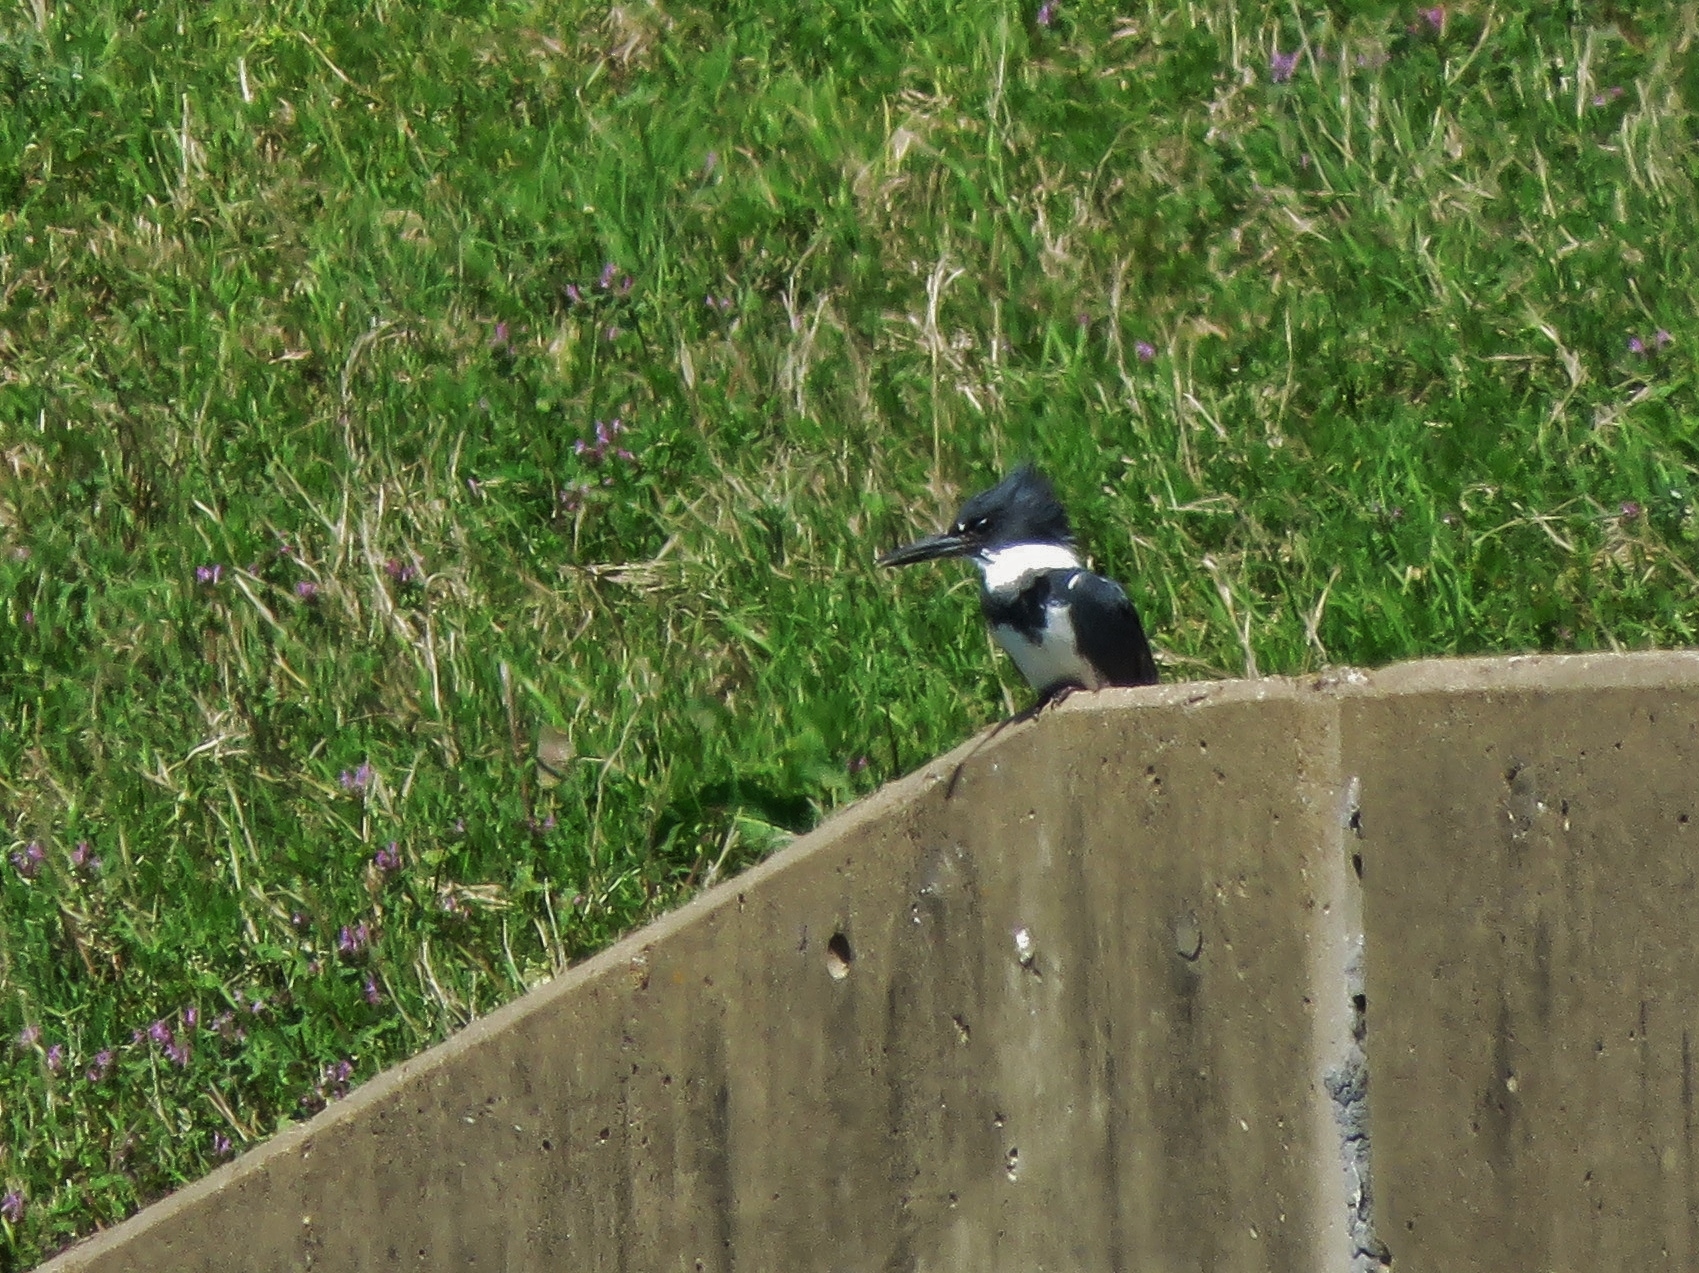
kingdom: Animalia
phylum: Chordata
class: Aves
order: Coraciiformes
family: Alcedinidae
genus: Megaceryle
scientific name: Megaceryle alcyon
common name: Belted kingfisher
